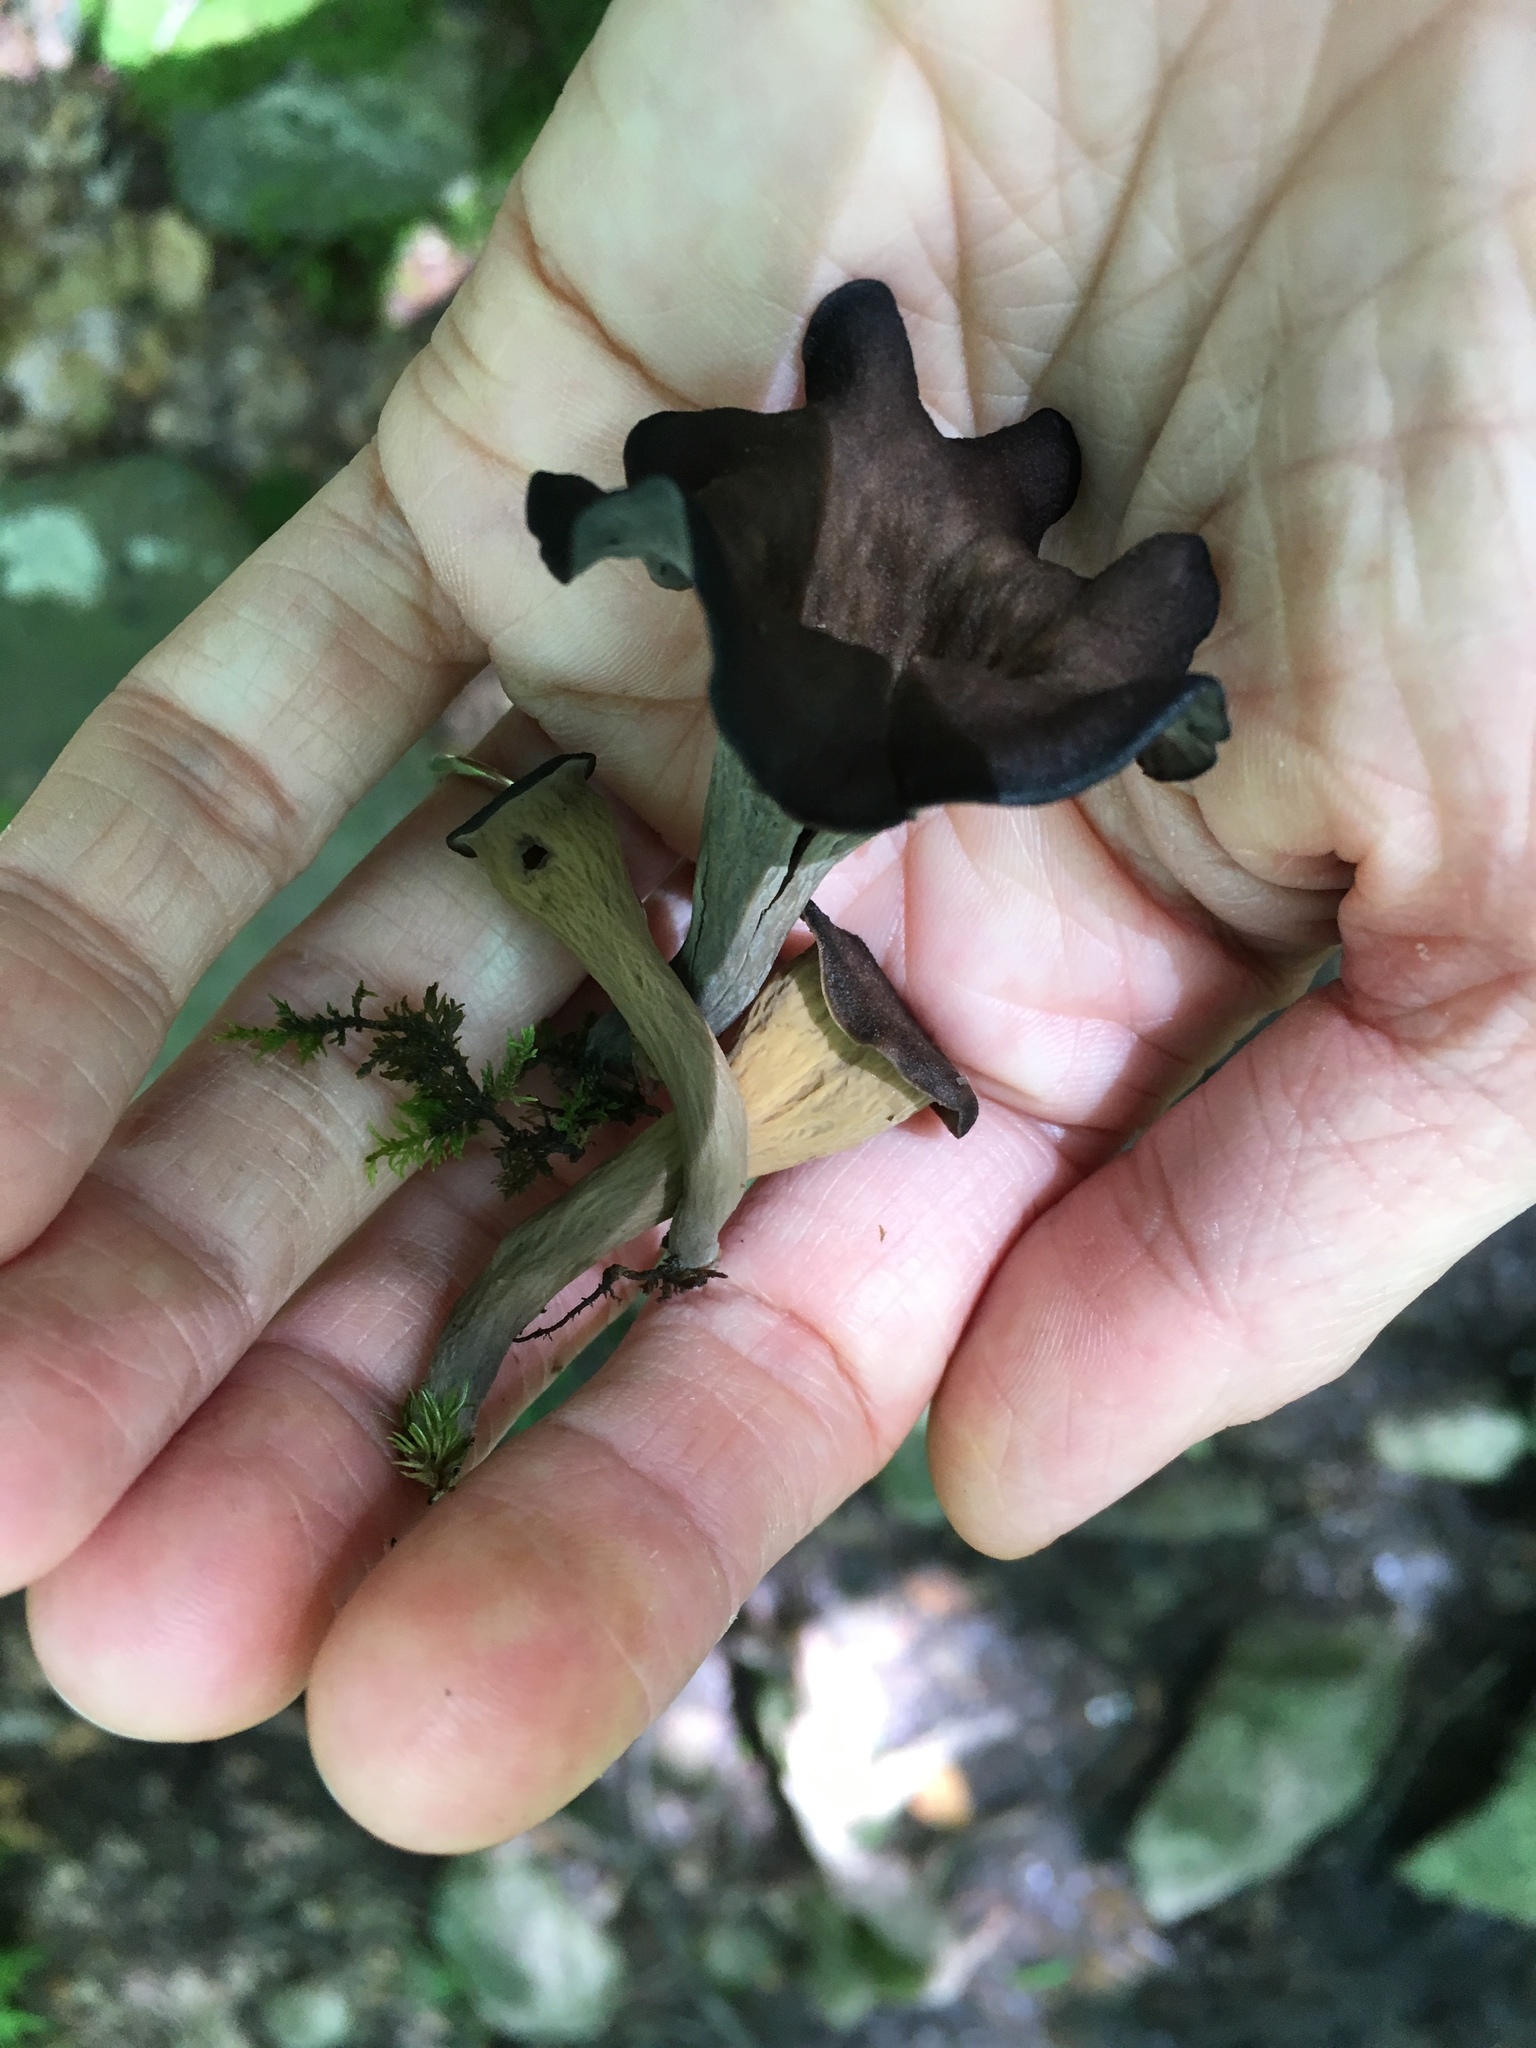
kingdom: Fungi
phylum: Basidiomycota
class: Agaricomycetes
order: Cantharellales
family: Hydnaceae
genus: Craterellus
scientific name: Craterellus cornucopioides
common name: Horn of plenty
